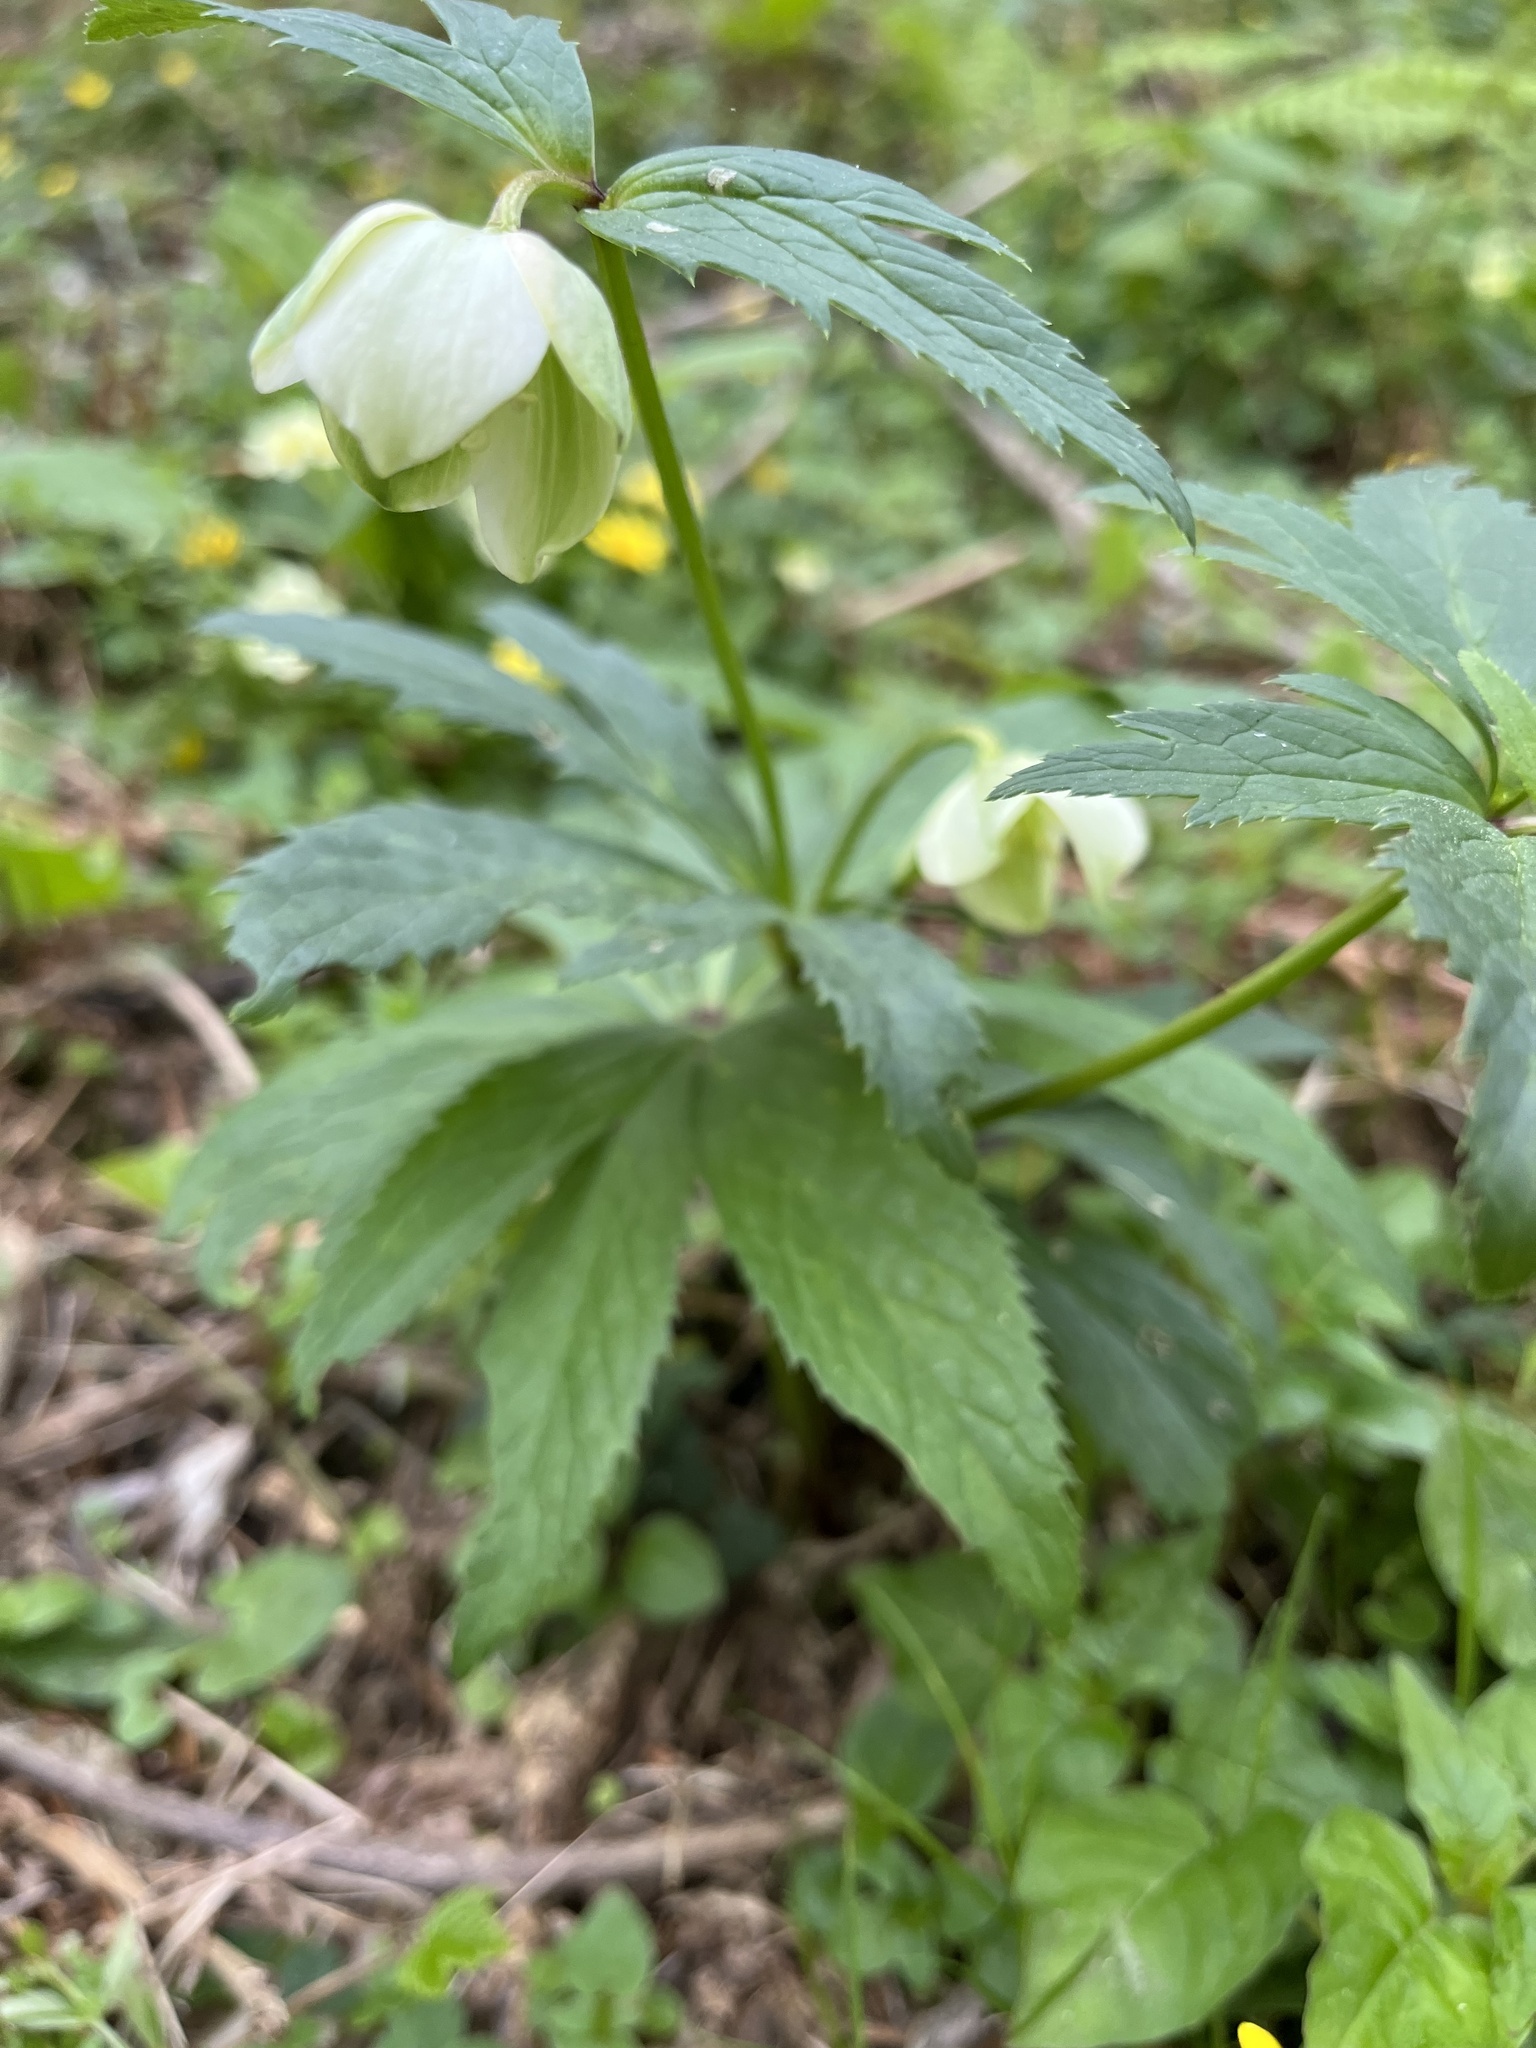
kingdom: Plantae
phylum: Tracheophyta
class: Magnoliopsida
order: Ranunculales
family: Ranunculaceae
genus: Helleborus
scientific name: Helleborus viridis
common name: Green hellebore
